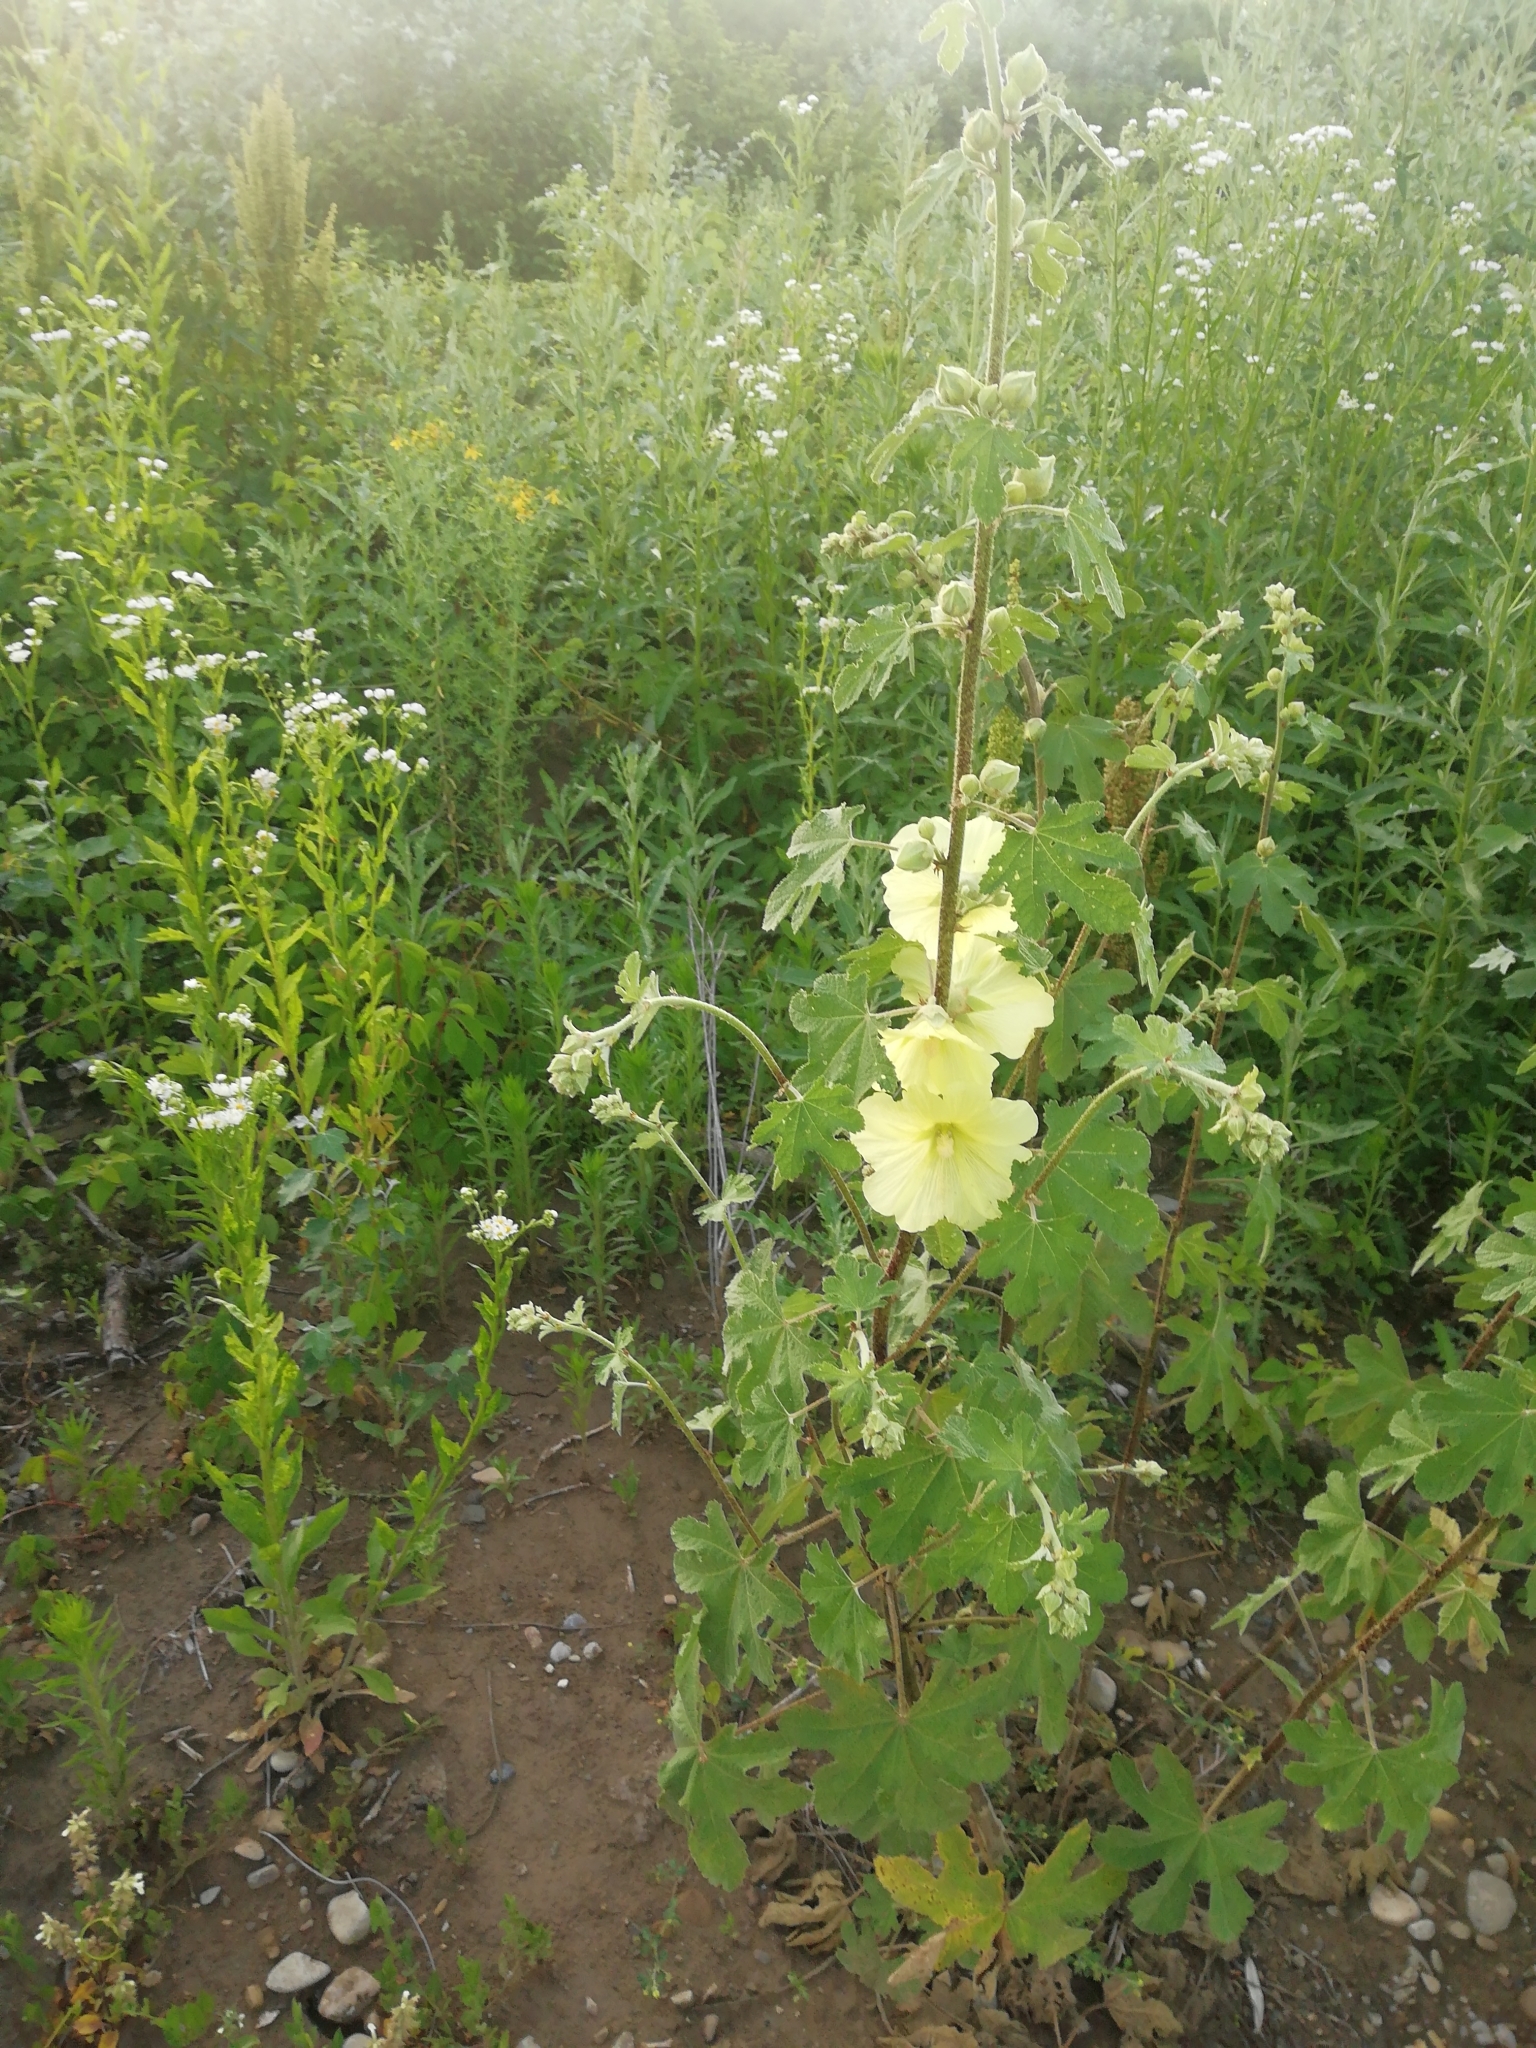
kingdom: Plantae
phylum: Tracheophyta
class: Magnoliopsida
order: Malvales
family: Malvaceae
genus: Alcea
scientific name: Alcea rugosa
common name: Russian hollyhock
